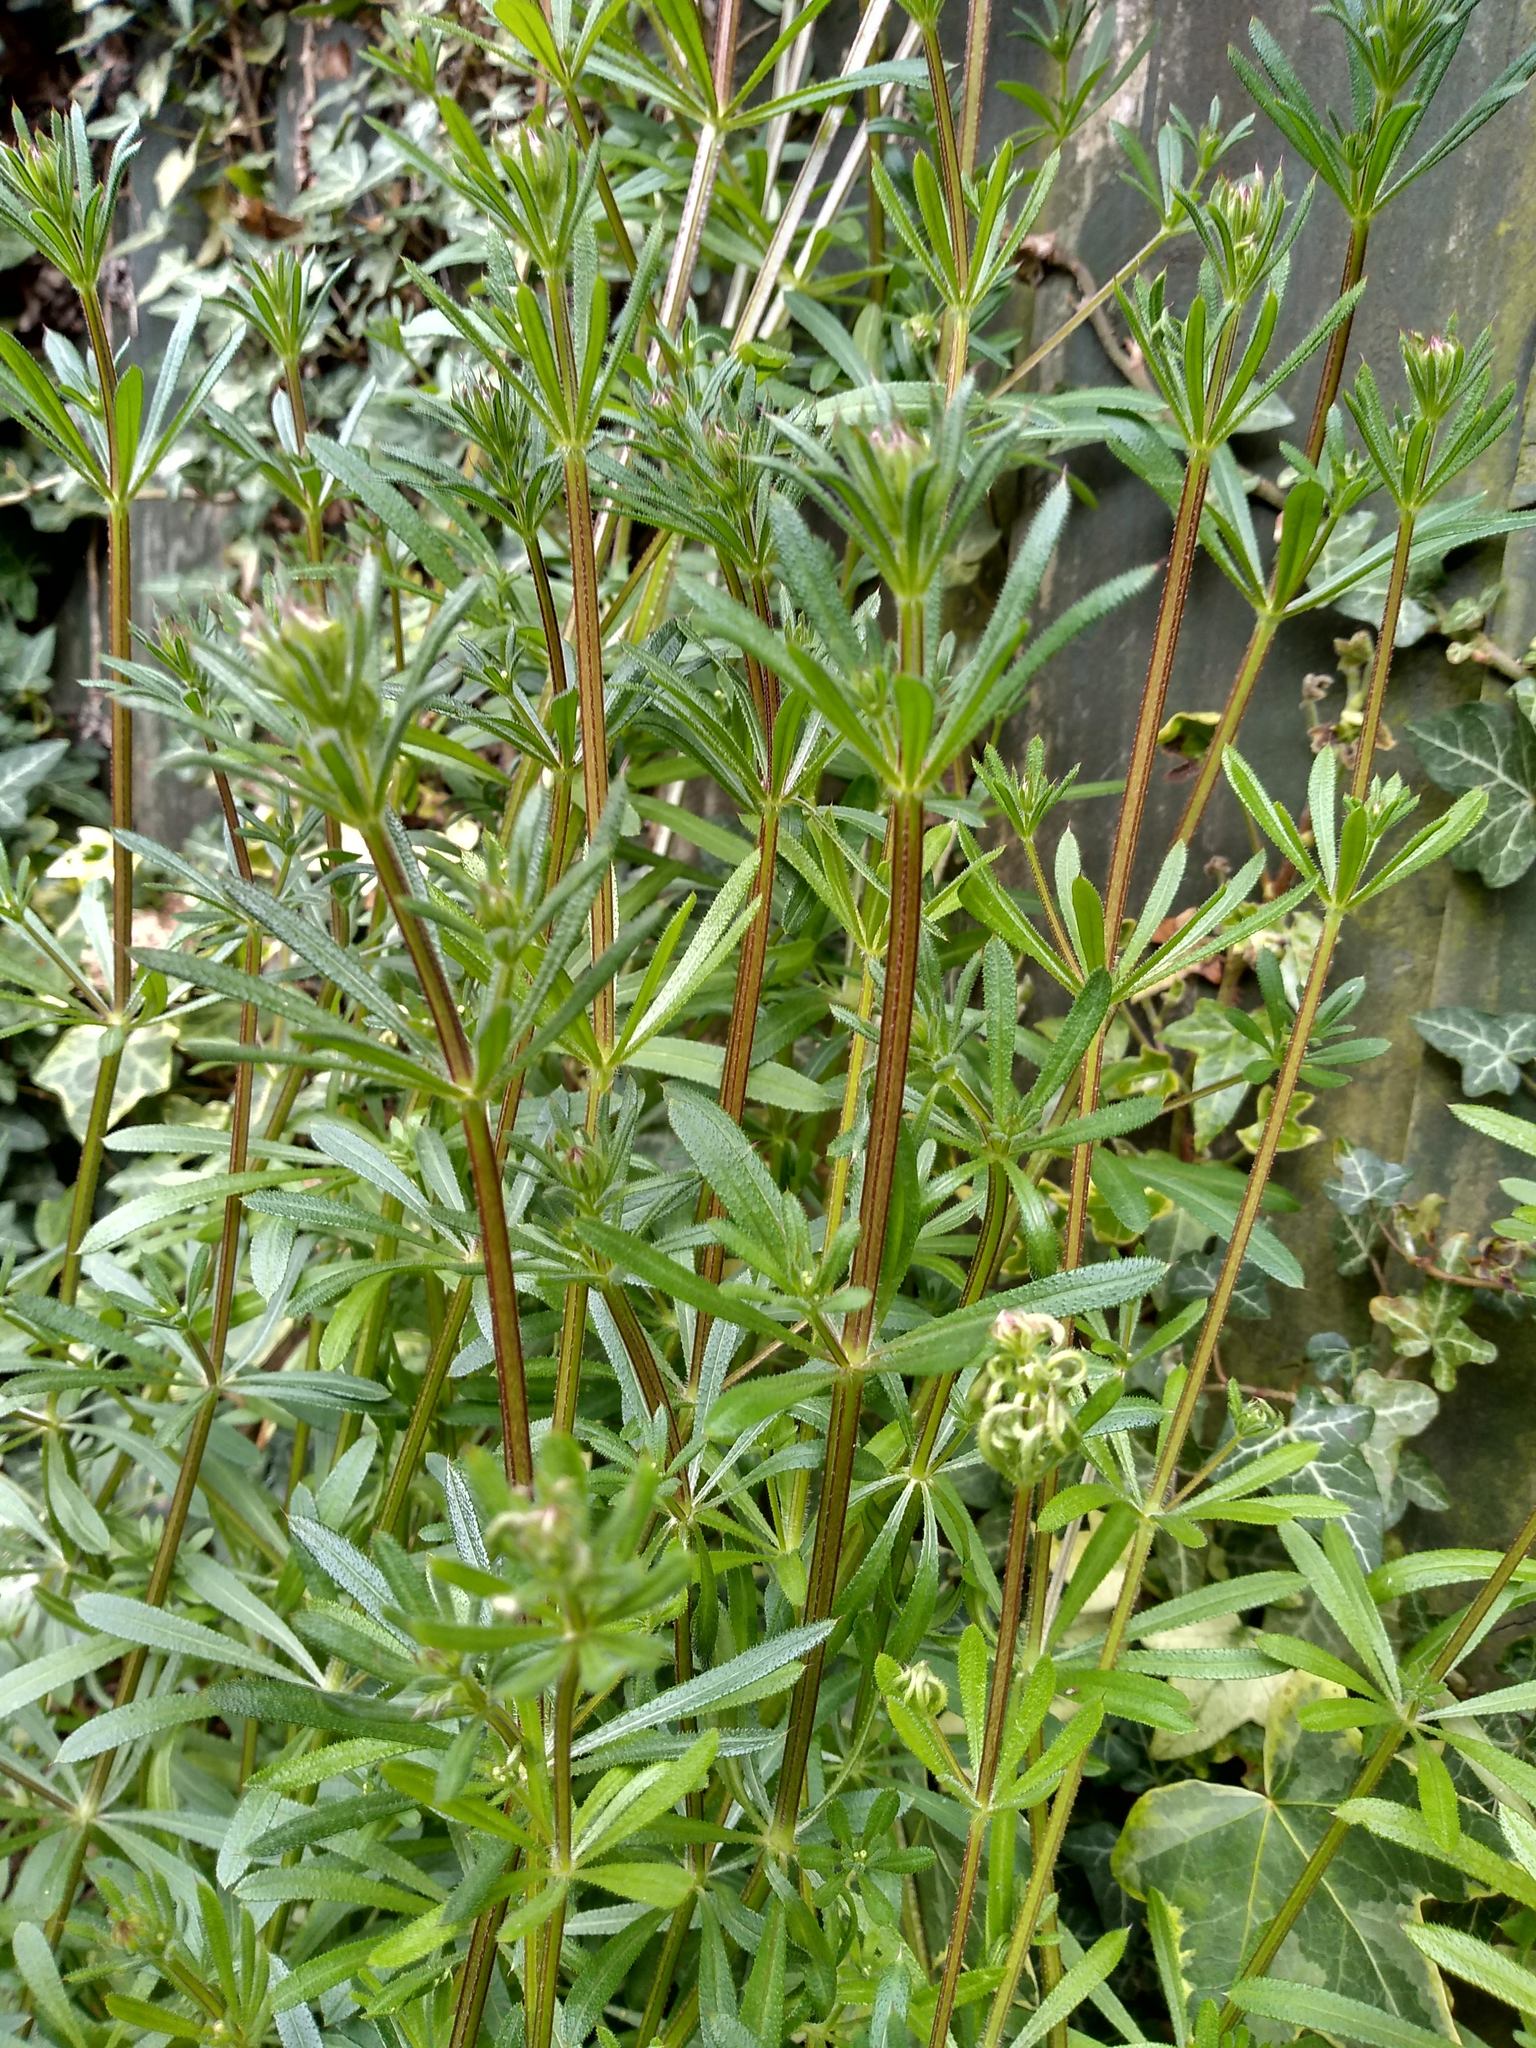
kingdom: Plantae
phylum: Tracheophyta
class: Magnoliopsida
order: Gentianales
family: Rubiaceae
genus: Galium
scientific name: Galium aparine
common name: Cleavers
